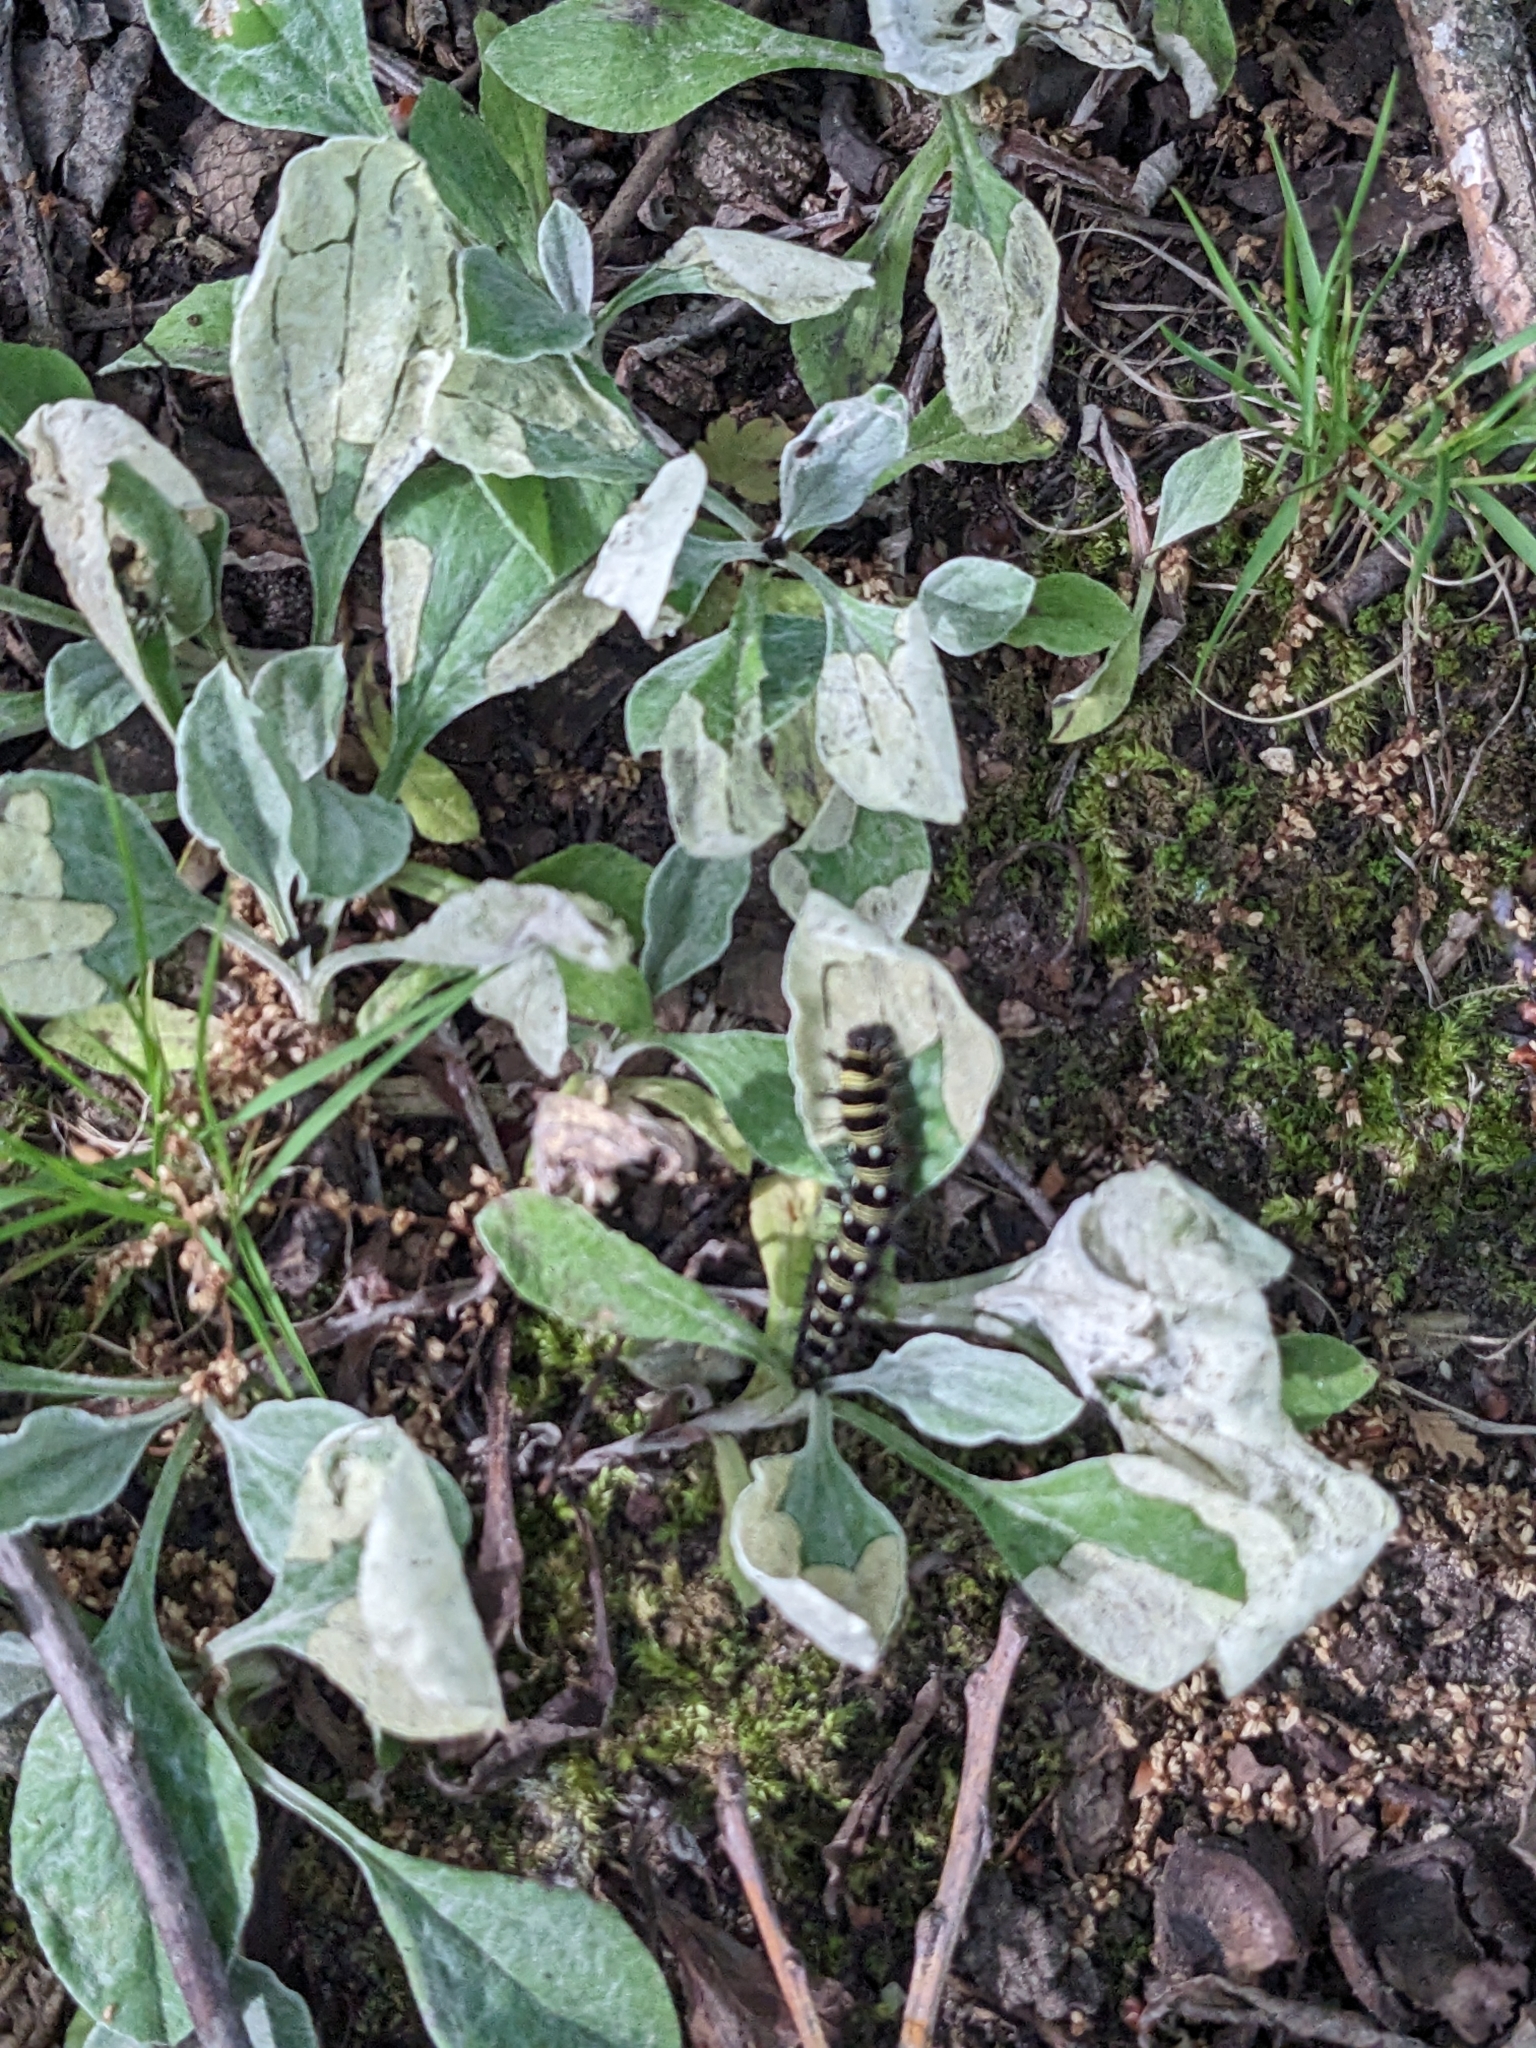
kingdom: Animalia
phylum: Arthropoda
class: Insecta
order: Lepidoptera
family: Nymphalidae
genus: Vanessa
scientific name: Vanessa virginiensis
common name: American lady
